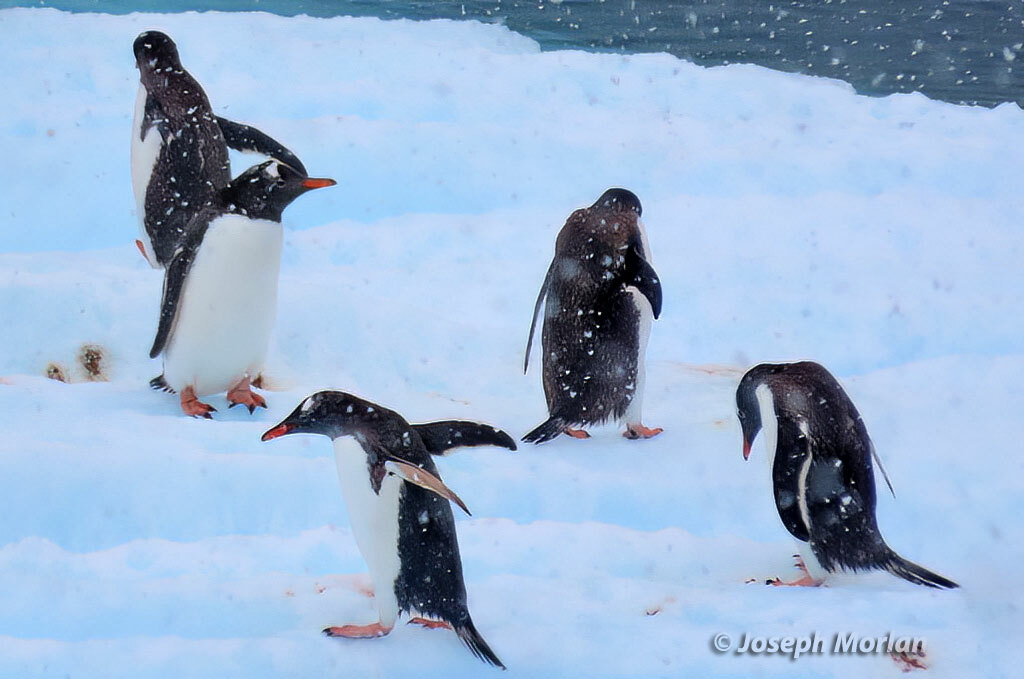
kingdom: Animalia
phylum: Chordata
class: Aves
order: Sphenisciformes
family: Spheniscidae
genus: Pygoscelis
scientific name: Pygoscelis papua
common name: Gentoo penguin
